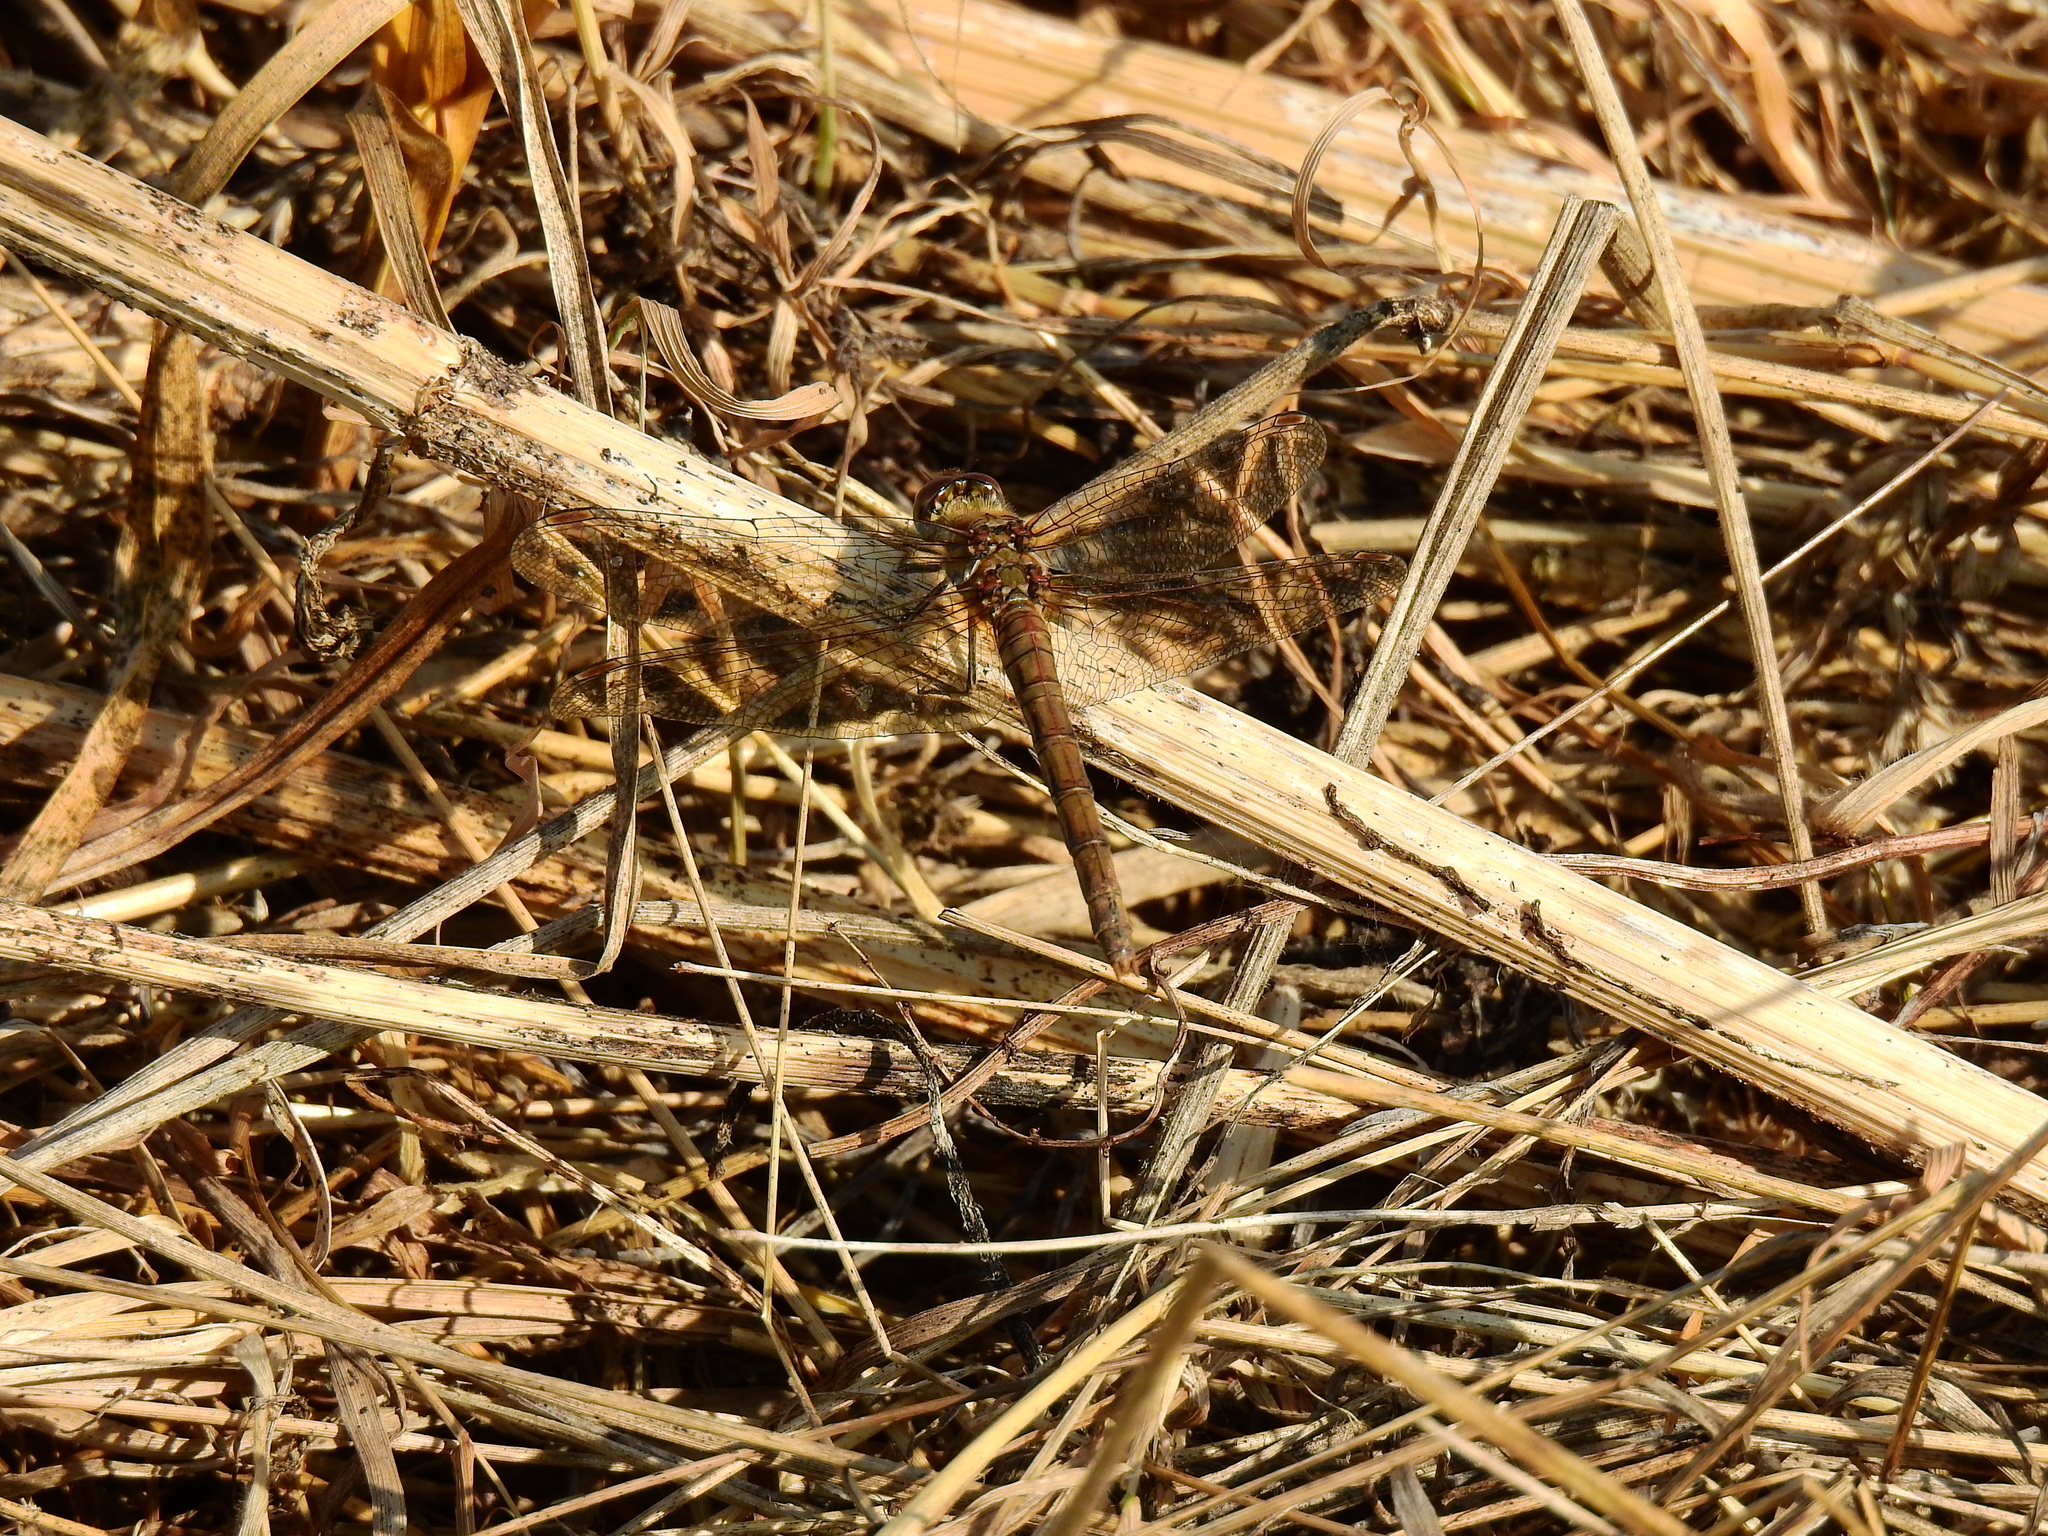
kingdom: Animalia
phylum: Arthropoda
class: Insecta
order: Odonata
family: Libellulidae
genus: Sympetrum
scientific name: Sympetrum striolatum
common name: Common darter
